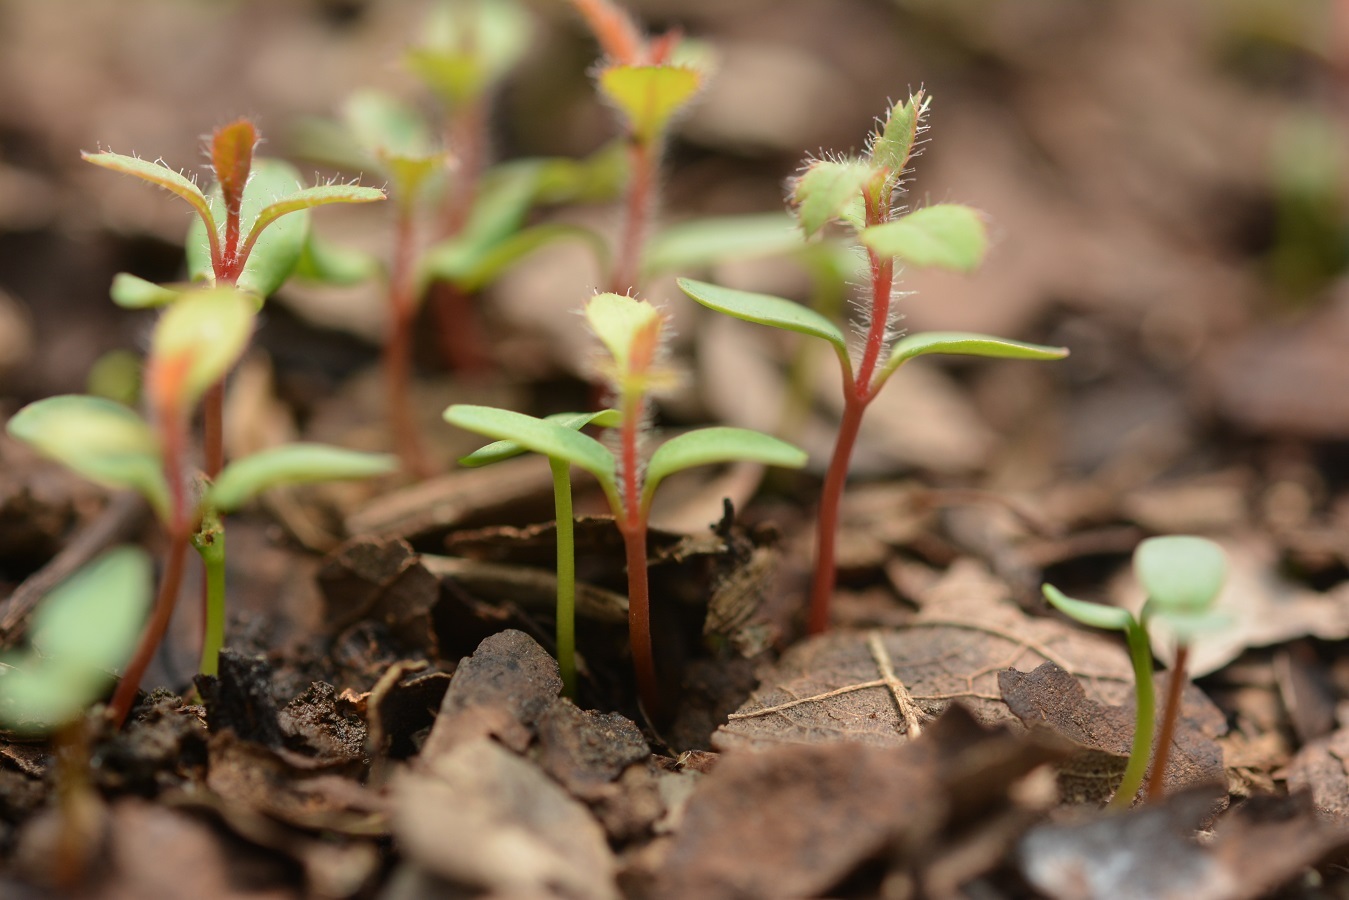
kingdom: Plantae
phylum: Tracheophyta
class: Magnoliopsida
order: Ericales
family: Ericaceae
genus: Arbutus
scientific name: Arbutus xalapensis
